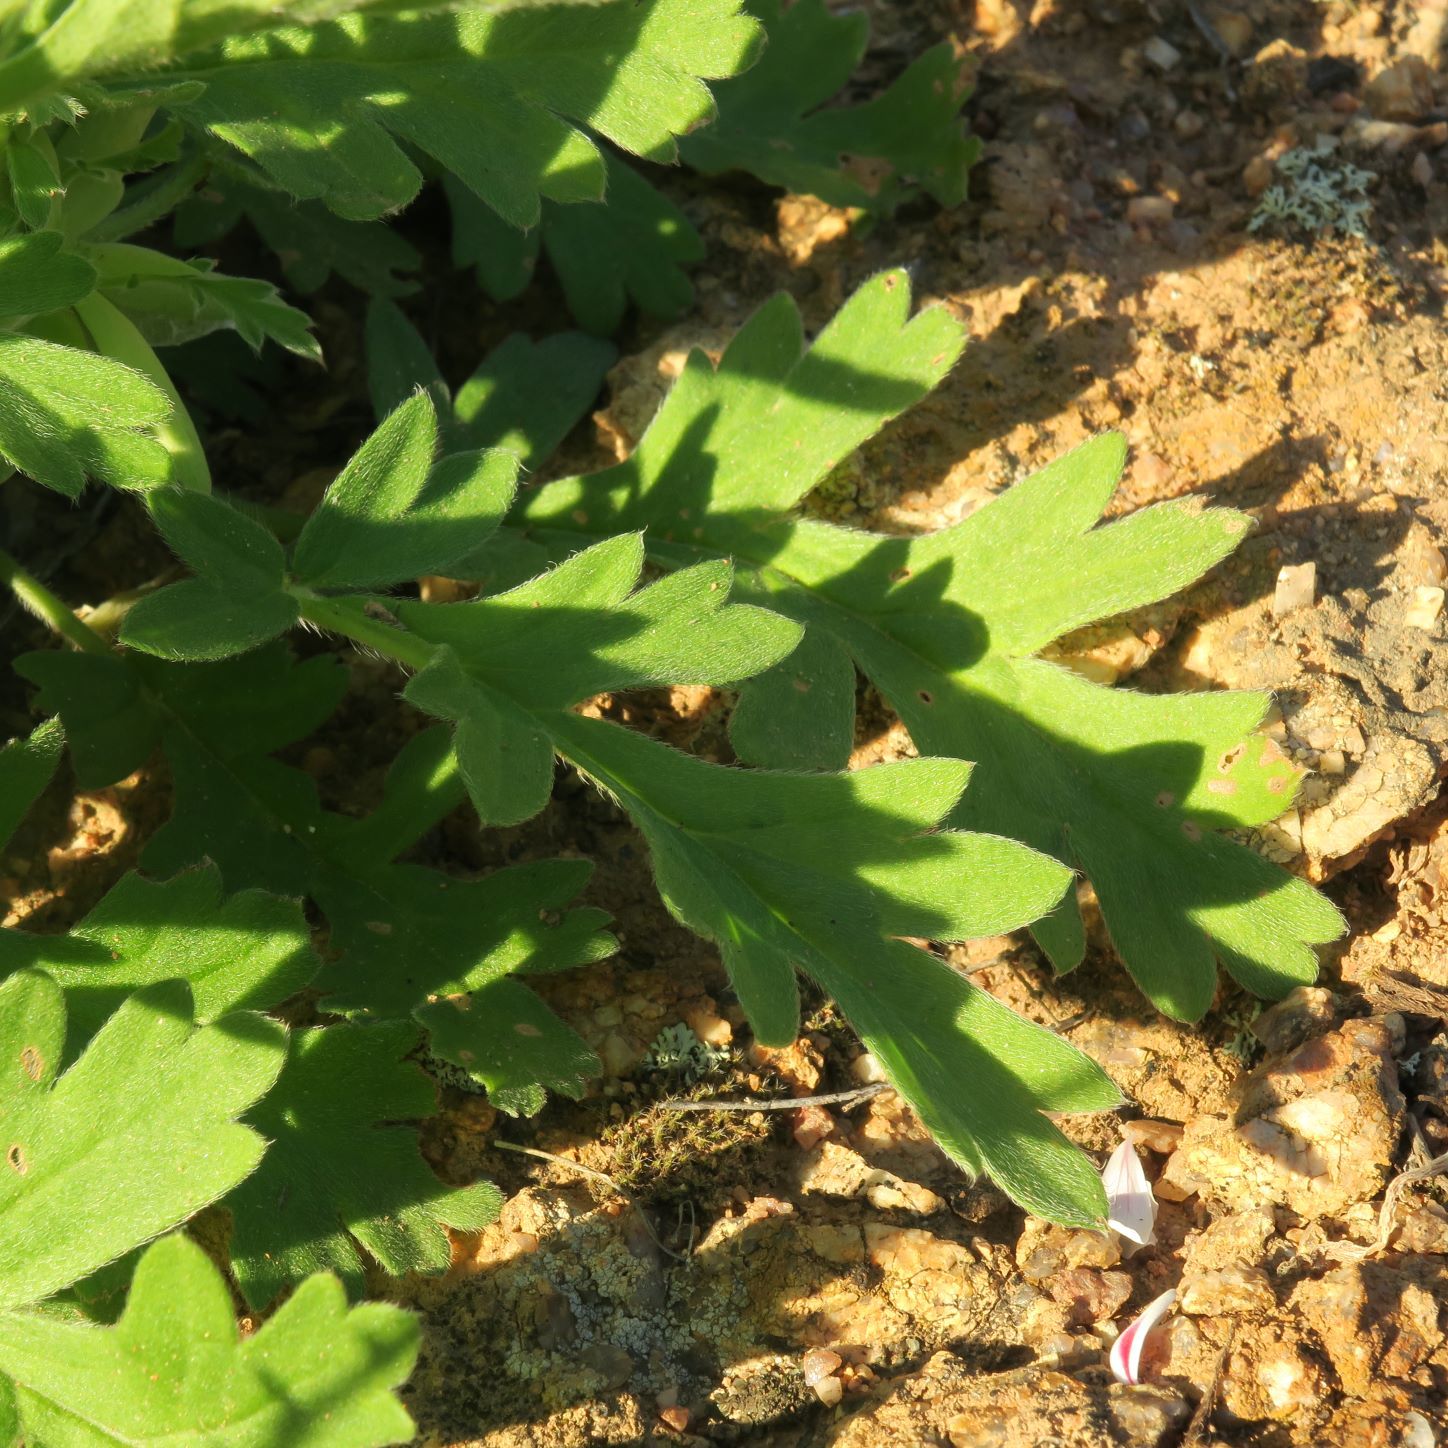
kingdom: Plantae
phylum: Tracheophyta
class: Magnoliopsida
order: Geraniales
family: Geraniaceae
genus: Pelargonium
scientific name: Pelargonium pulchellum
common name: Nonesuch pelargonium
